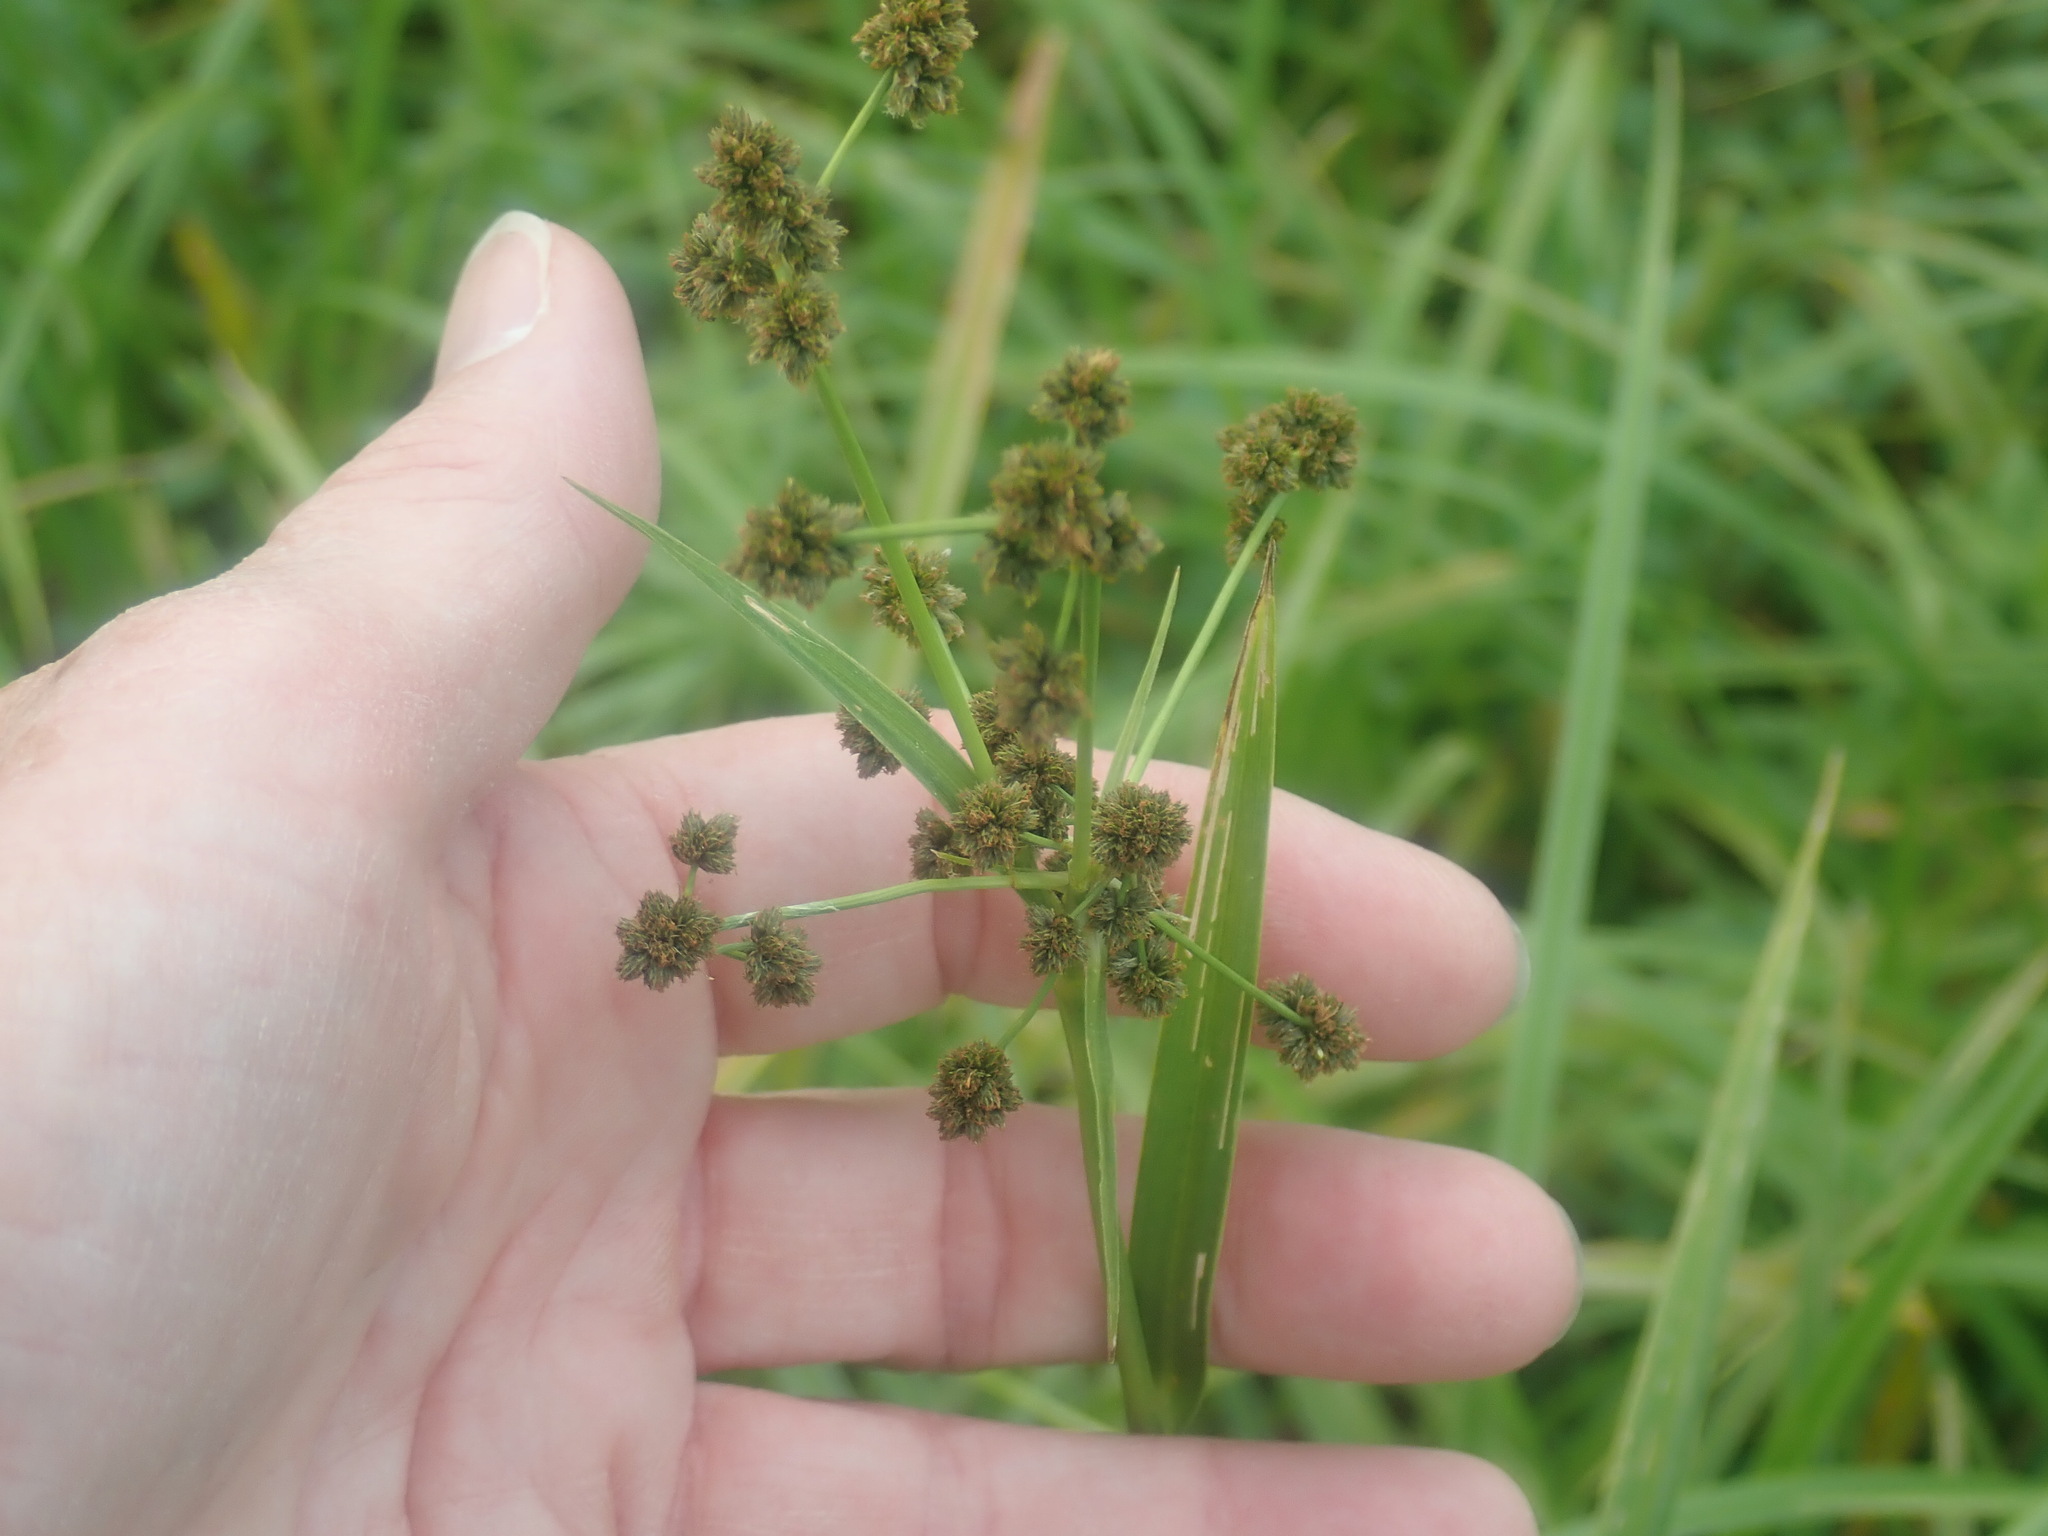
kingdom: Plantae
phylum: Tracheophyta
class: Liliopsida
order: Poales
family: Cyperaceae
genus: Scirpus
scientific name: Scirpus
